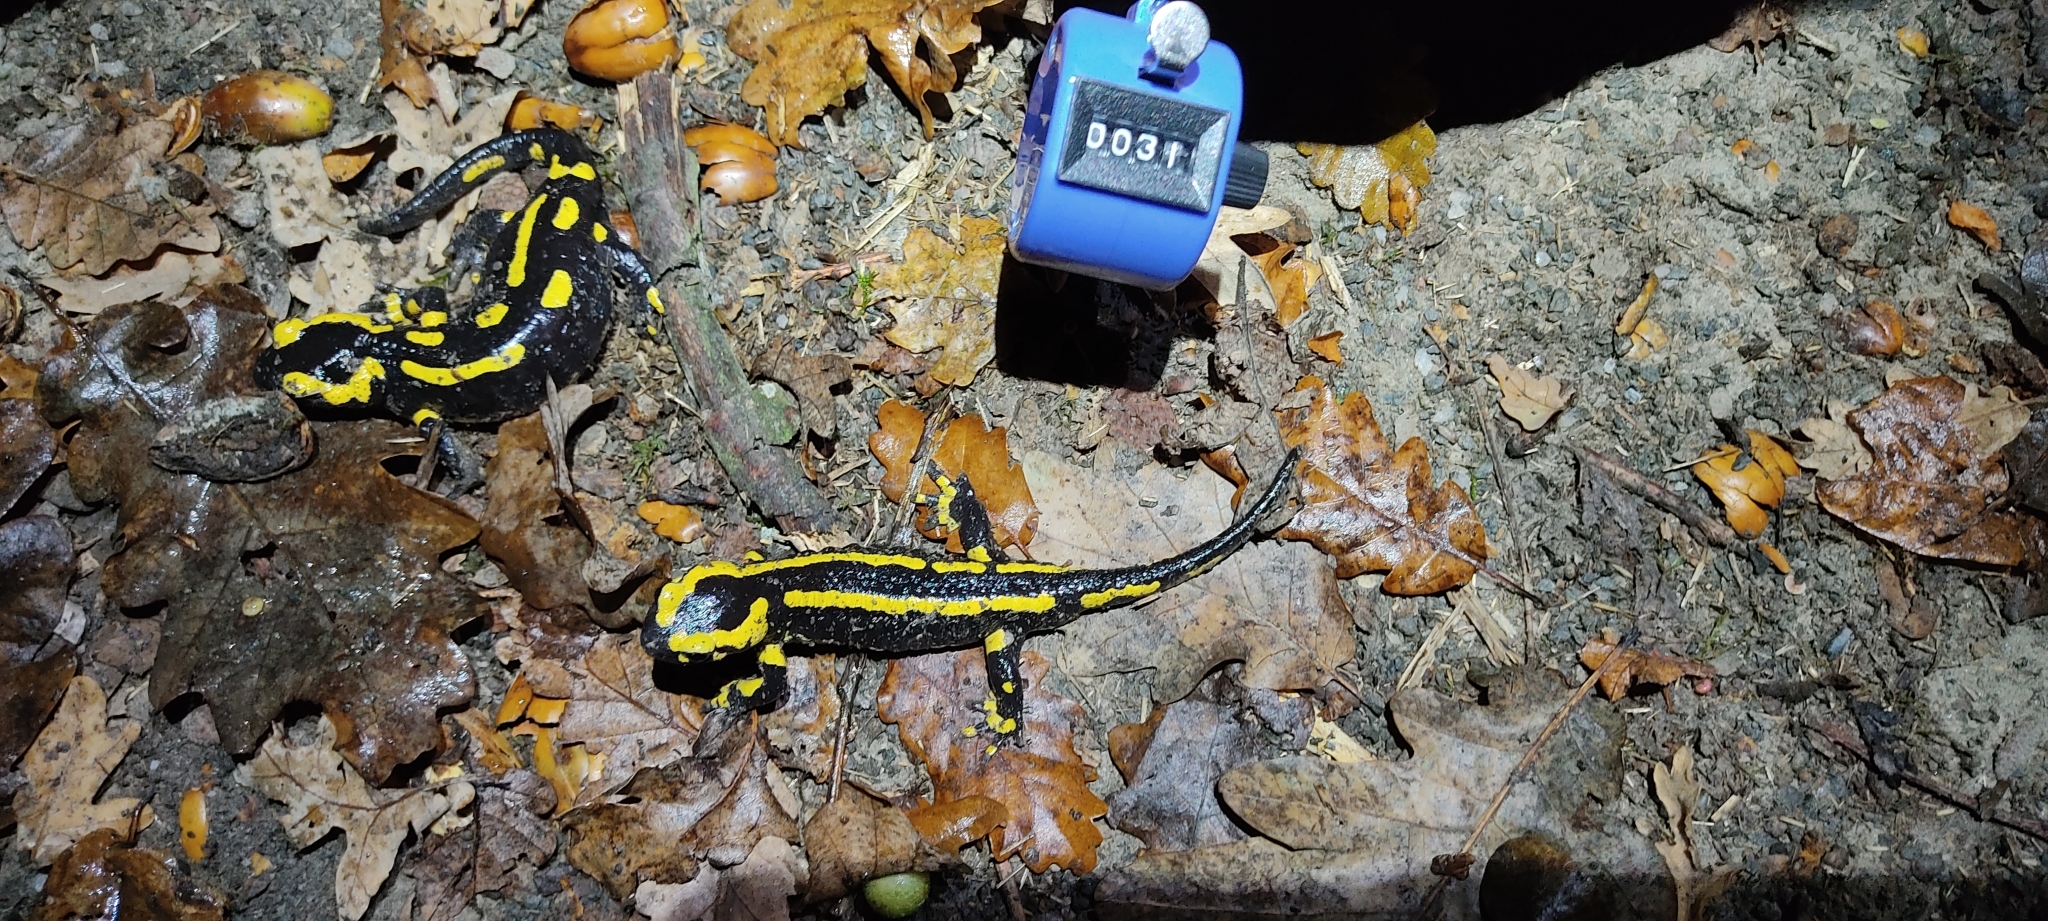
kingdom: Animalia
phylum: Chordata
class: Amphibia
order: Caudata
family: Salamandridae
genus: Salamandra
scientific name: Salamandra salamandra
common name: Fire salamander
